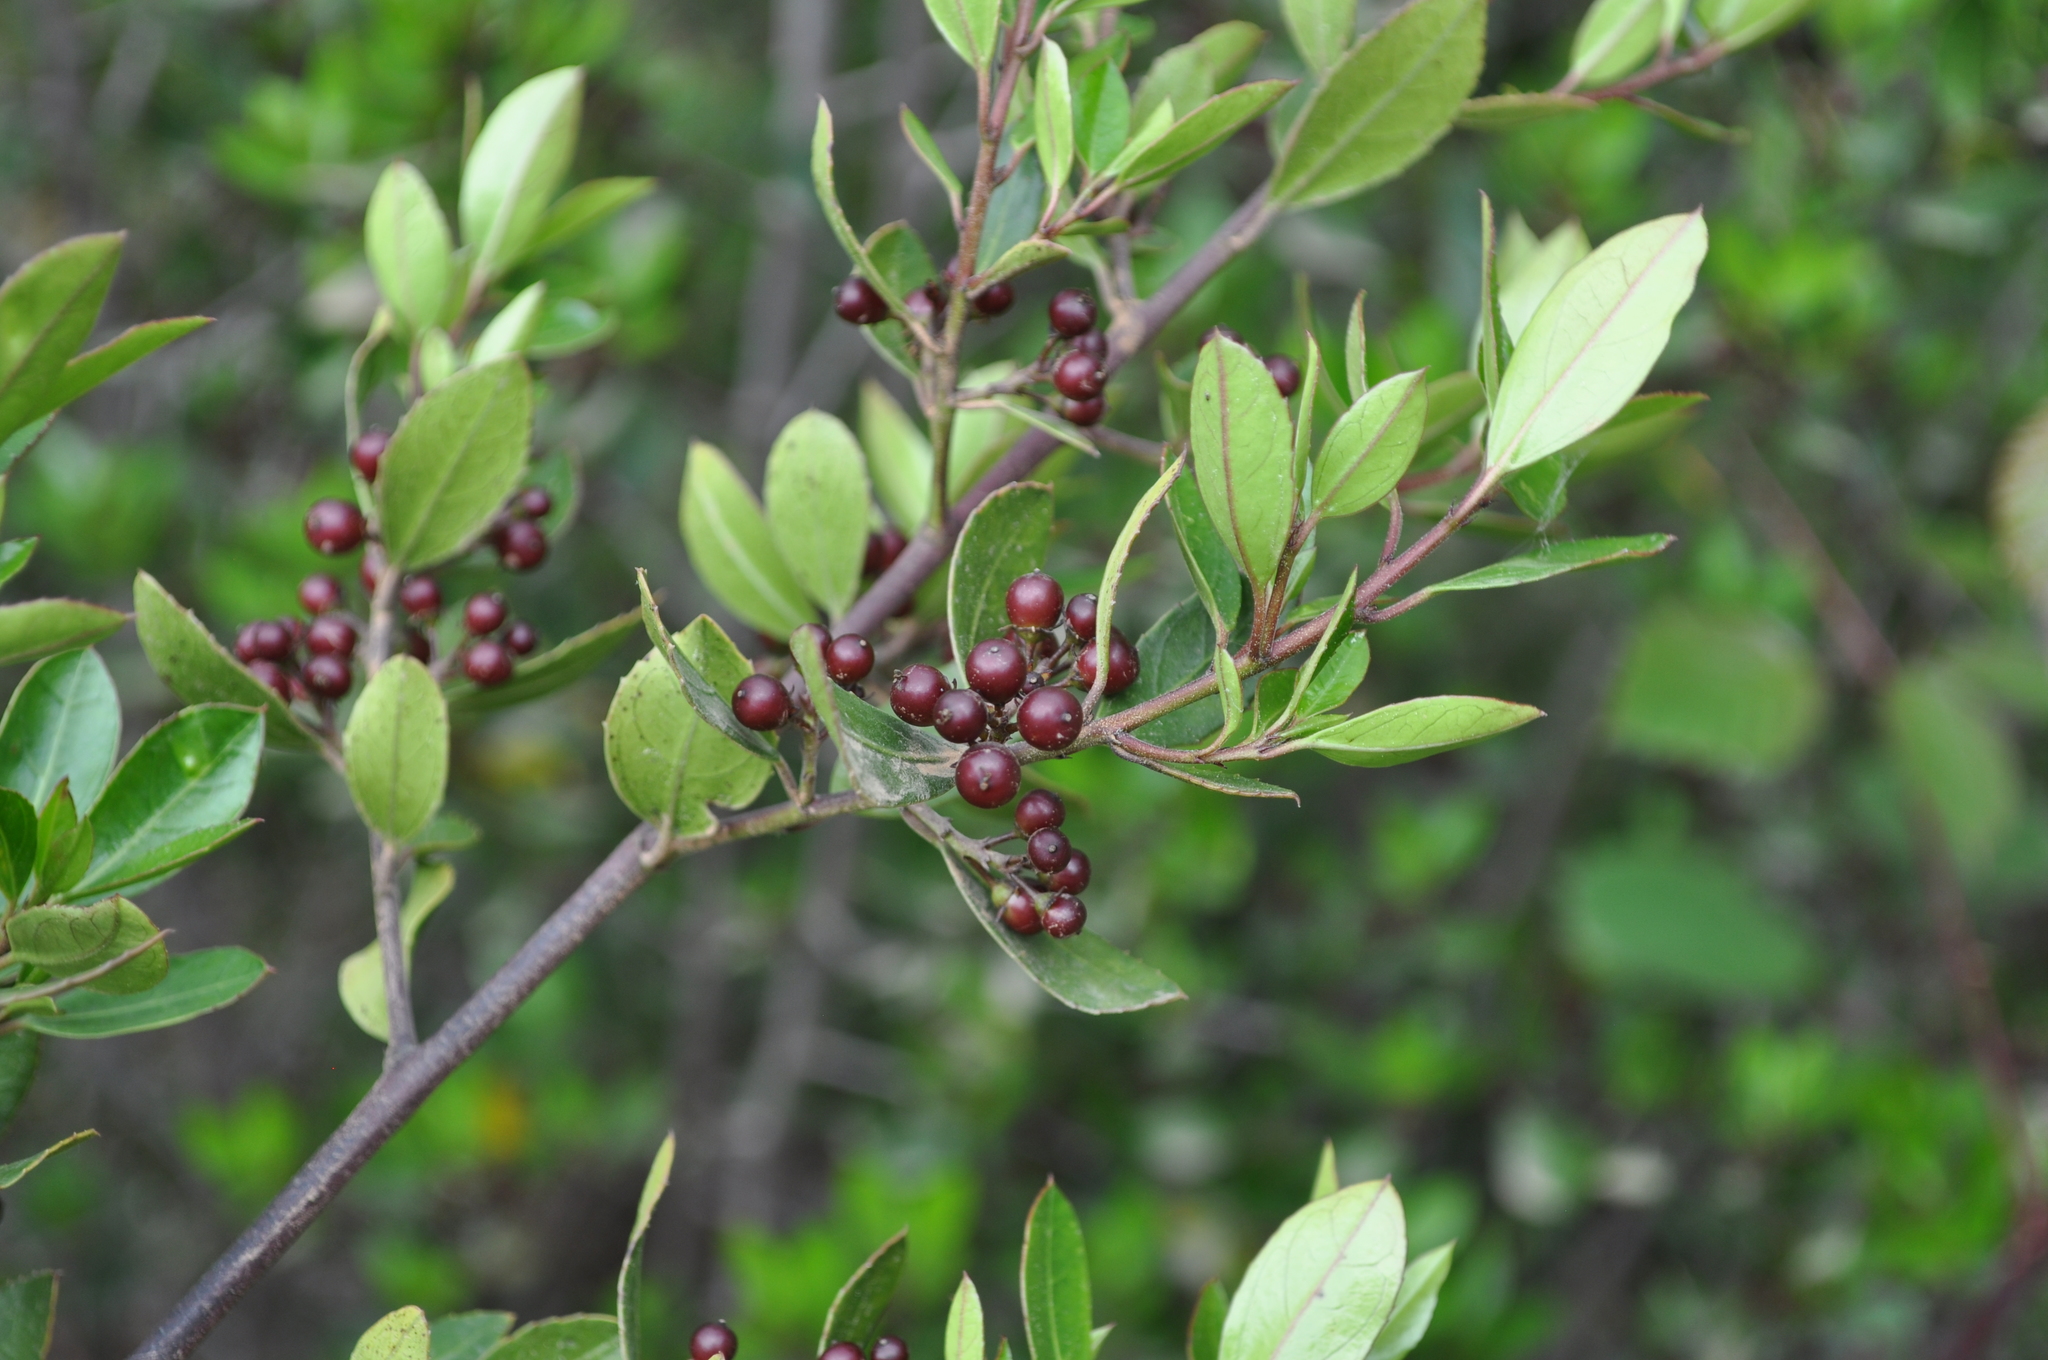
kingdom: Plantae
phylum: Tracheophyta
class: Magnoliopsida
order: Rosales
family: Rhamnaceae
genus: Rhamnus
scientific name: Rhamnus alaternus
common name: Mediterranean buckthorn
